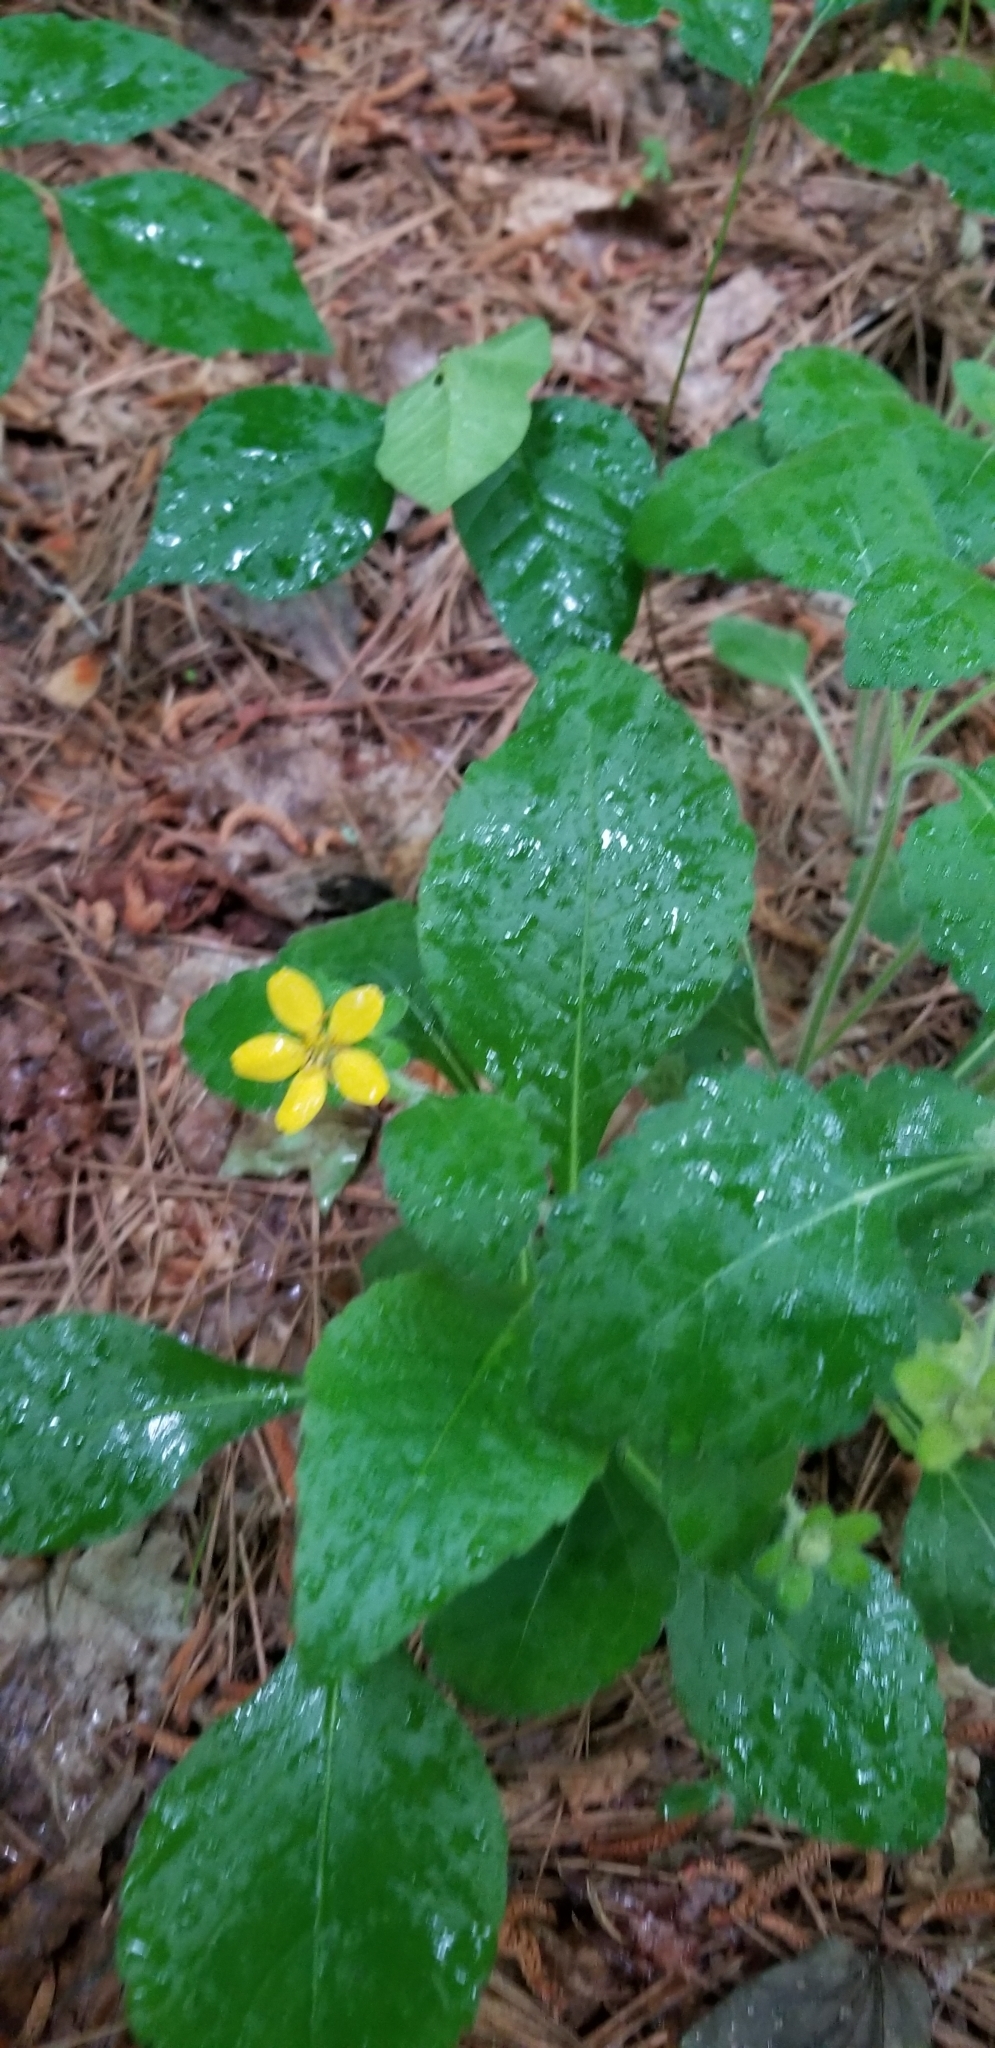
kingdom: Plantae
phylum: Tracheophyta
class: Magnoliopsida
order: Asterales
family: Asteraceae
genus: Chrysogonum
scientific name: Chrysogonum virginianum
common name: Golden-knee
